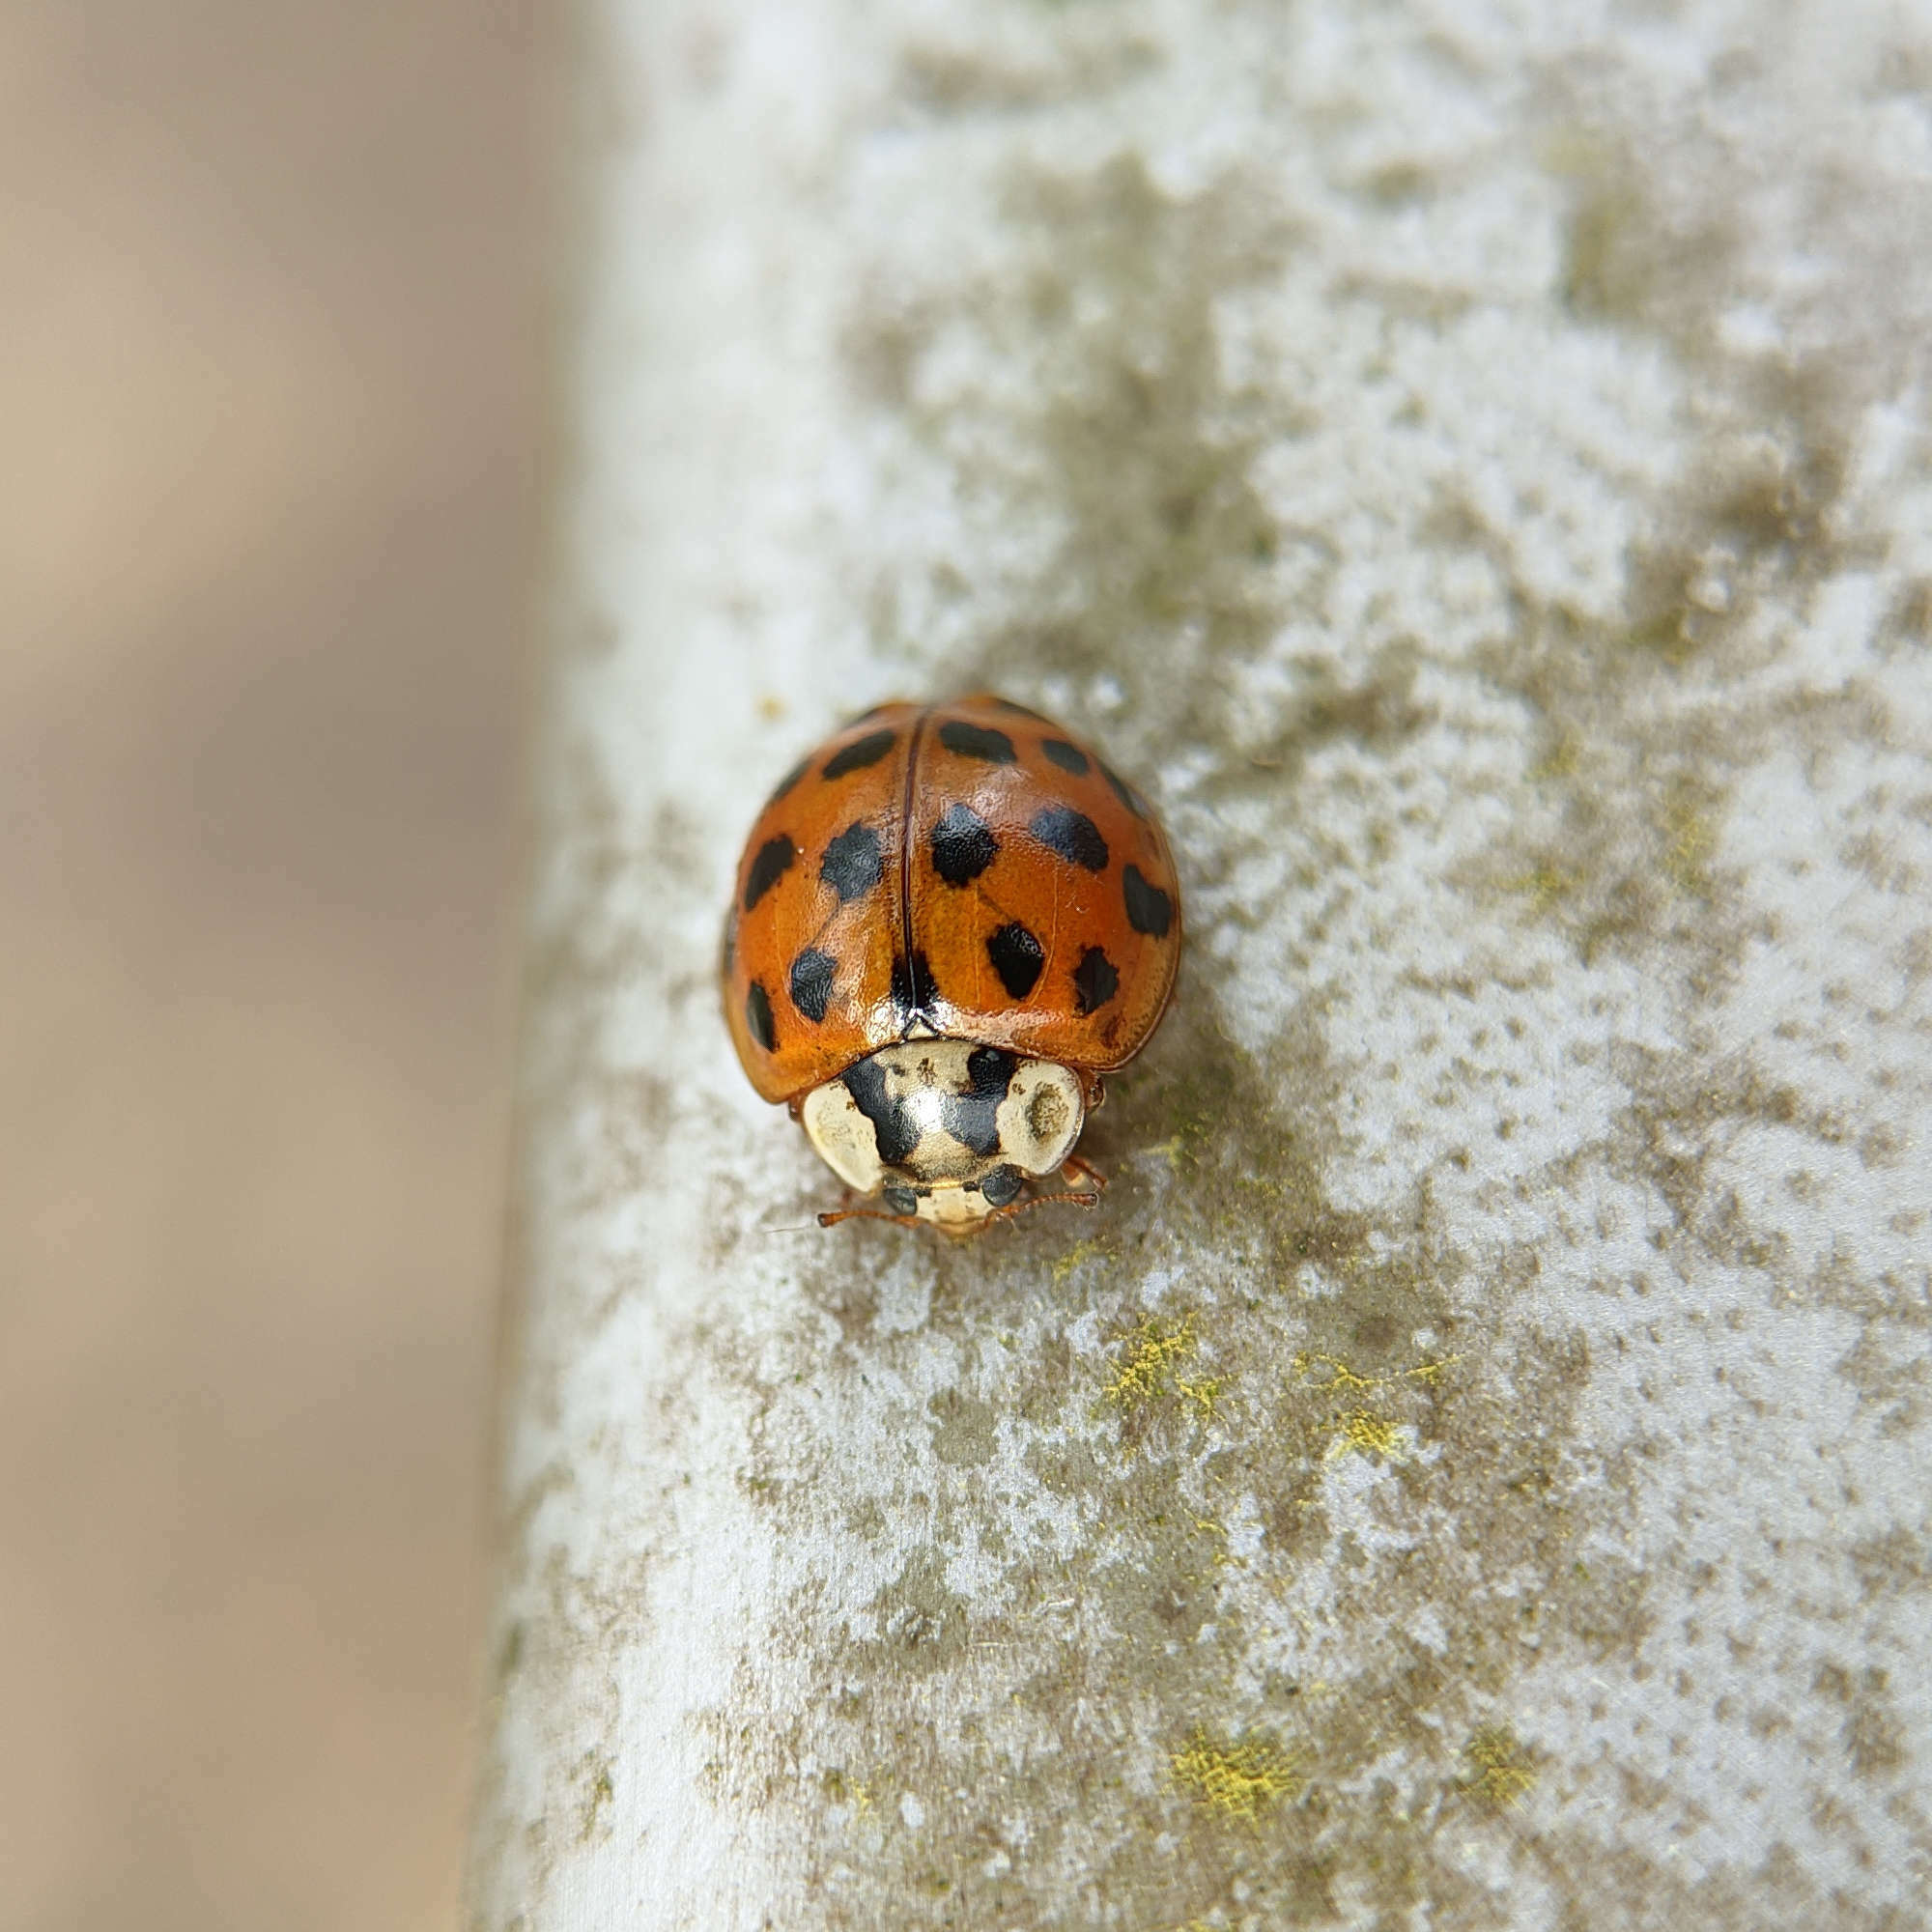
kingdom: Animalia
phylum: Arthropoda
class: Insecta
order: Coleoptera
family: Coccinellidae
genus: Harmonia
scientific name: Harmonia axyridis
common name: Harlequin ladybird
